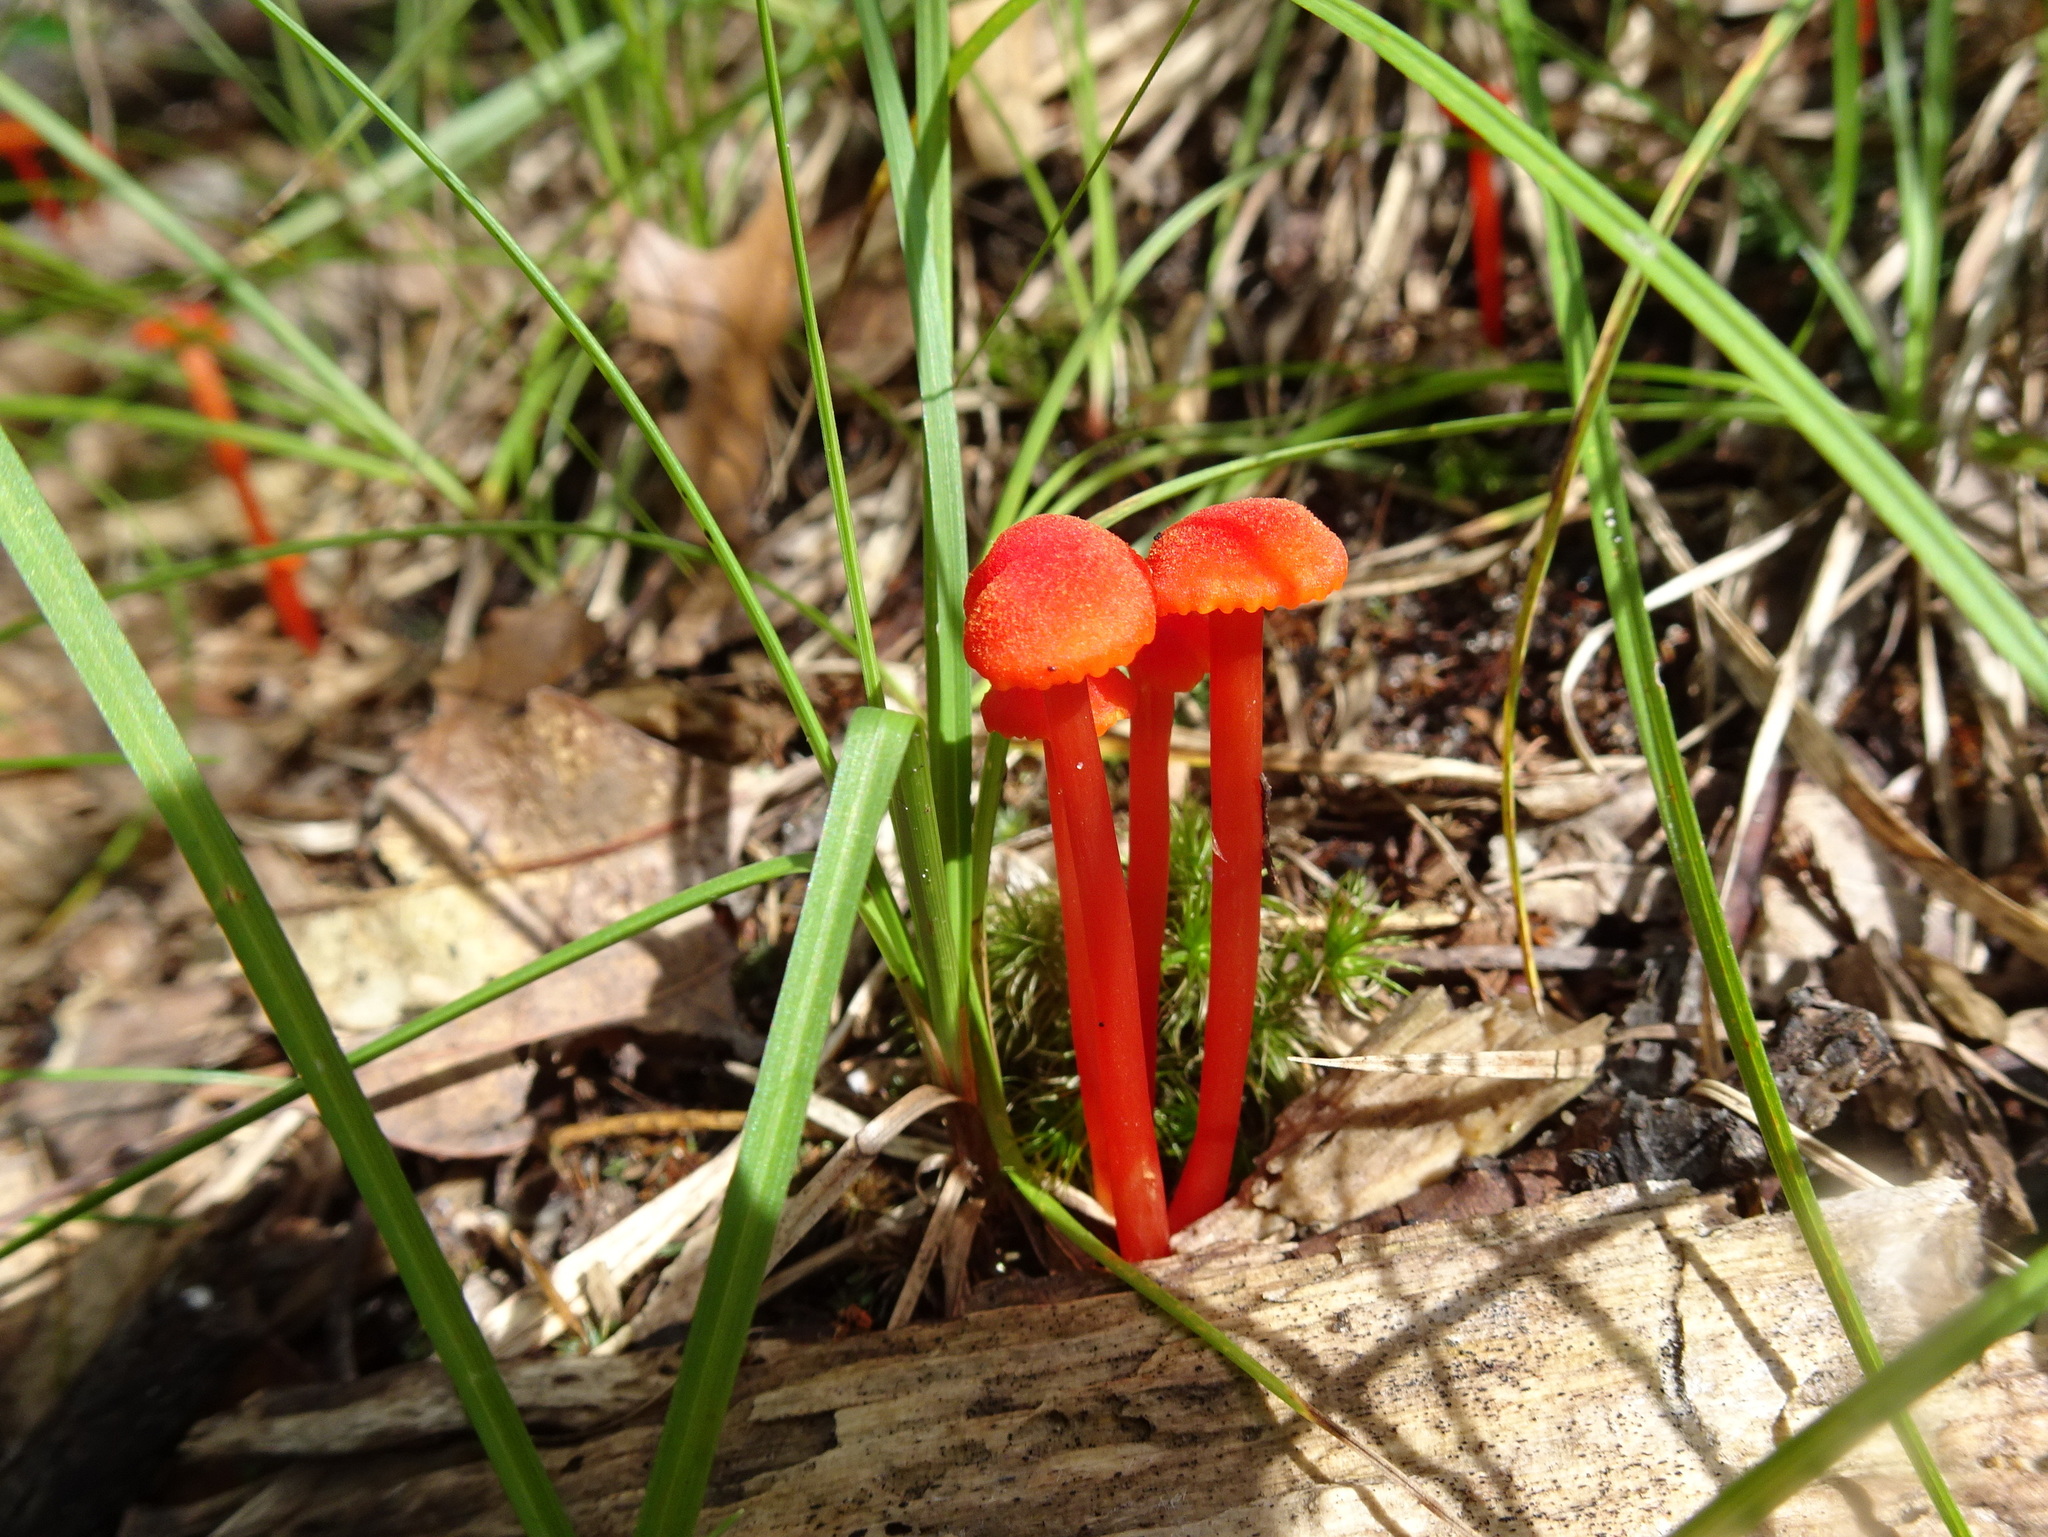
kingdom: Fungi
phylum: Basidiomycota
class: Agaricomycetes
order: Agaricales
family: Hygrophoraceae
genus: Hygrocybe
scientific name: Hygrocybe cantharellus
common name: Goblet waxcap
